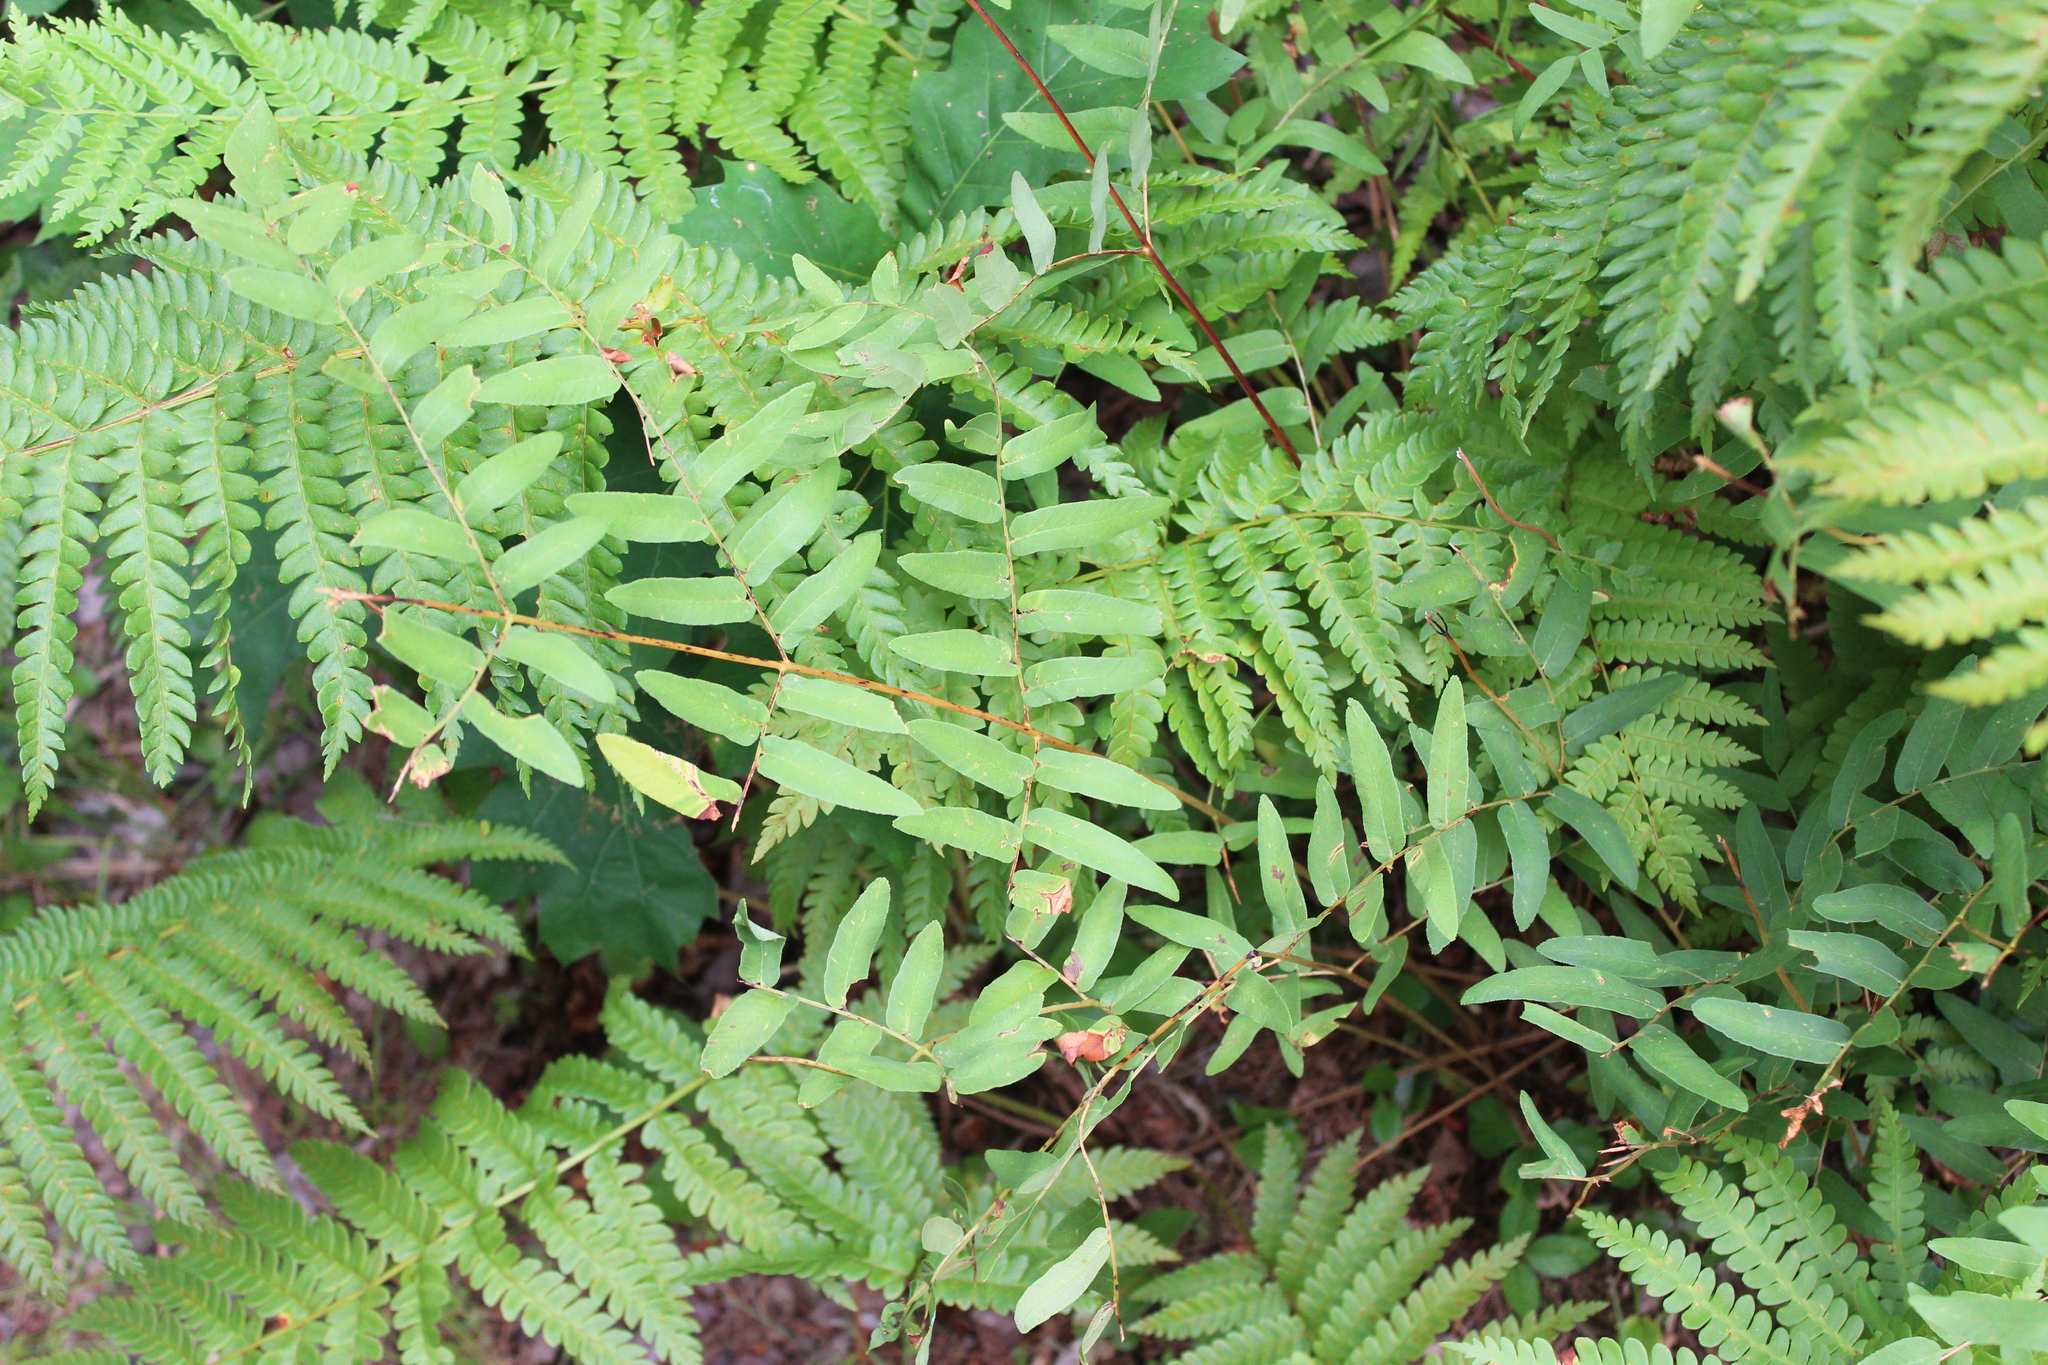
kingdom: Plantae
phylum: Tracheophyta
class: Polypodiopsida
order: Osmundales
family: Osmundaceae
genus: Osmunda
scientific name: Osmunda spectabilis
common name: American royal fern
